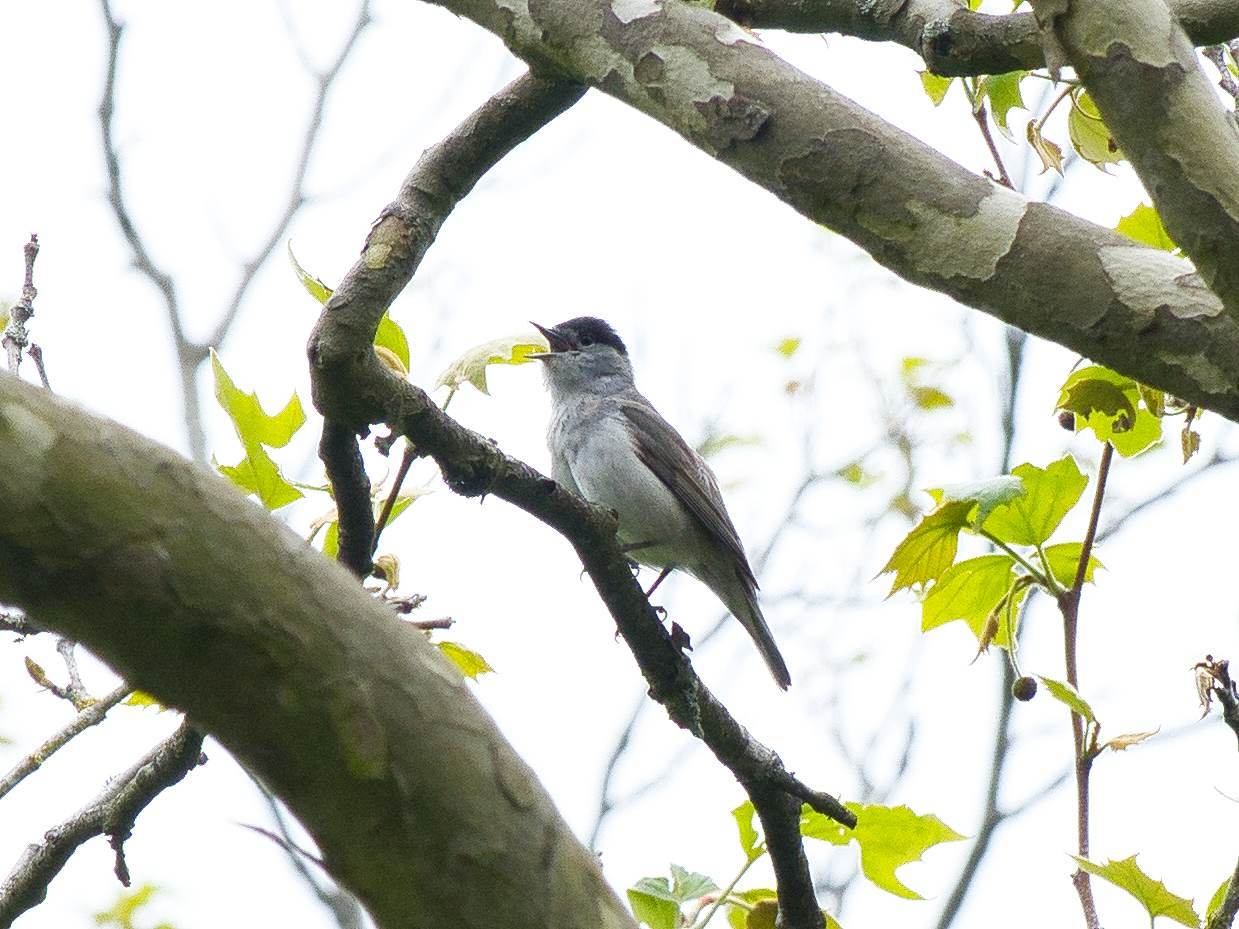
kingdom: Animalia
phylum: Chordata
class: Aves
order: Passeriformes
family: Sylviidae
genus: Sylvia
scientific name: Sylvia atricapilla
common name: Eurasian blackcap
